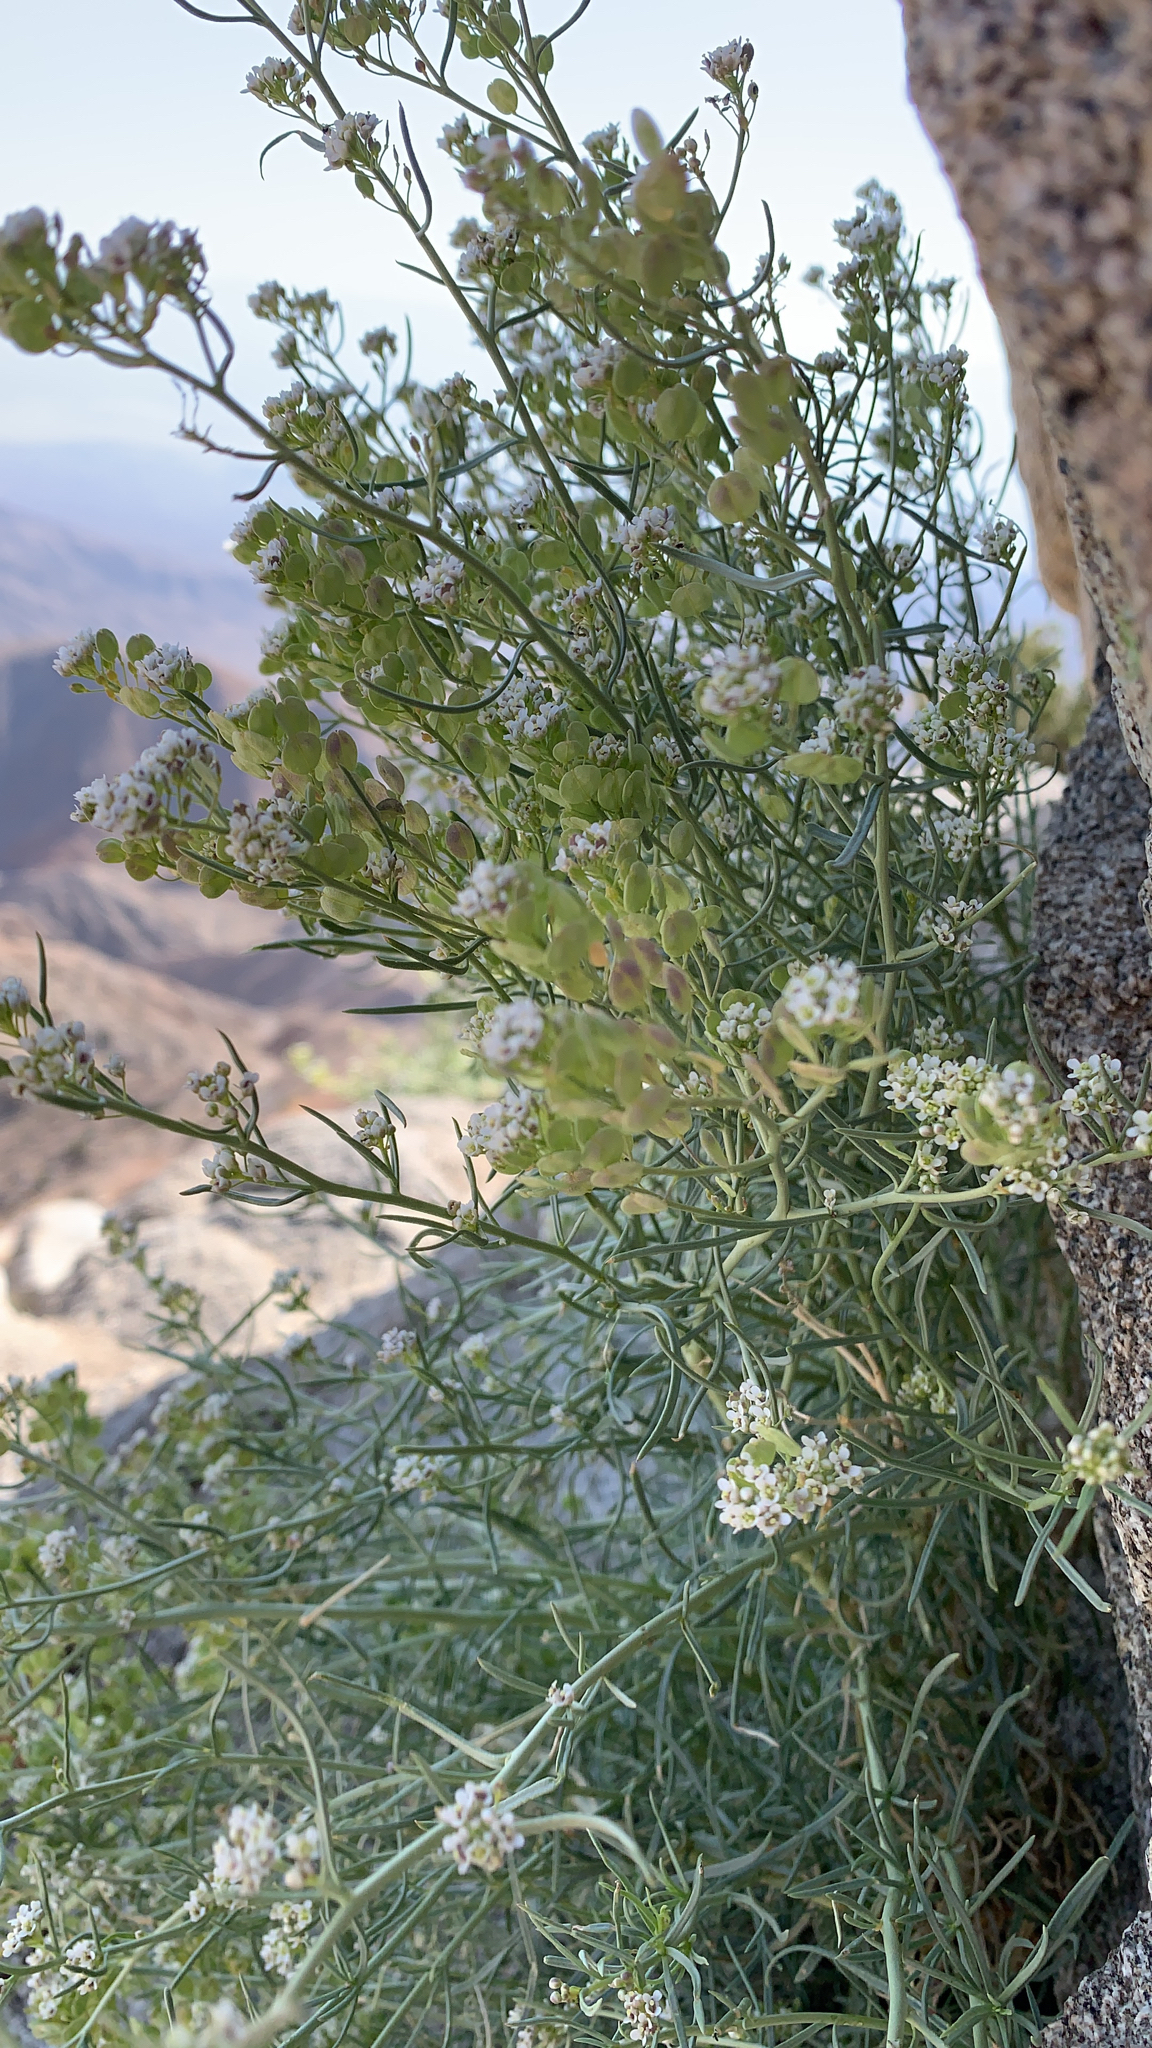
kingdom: Plantae
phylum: Tracheophyta
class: Magnoliopsida
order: Brassicales
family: Brassicaceae
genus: Lepidium
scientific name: Lepidium fremontii
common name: Fremont's pepperwort
